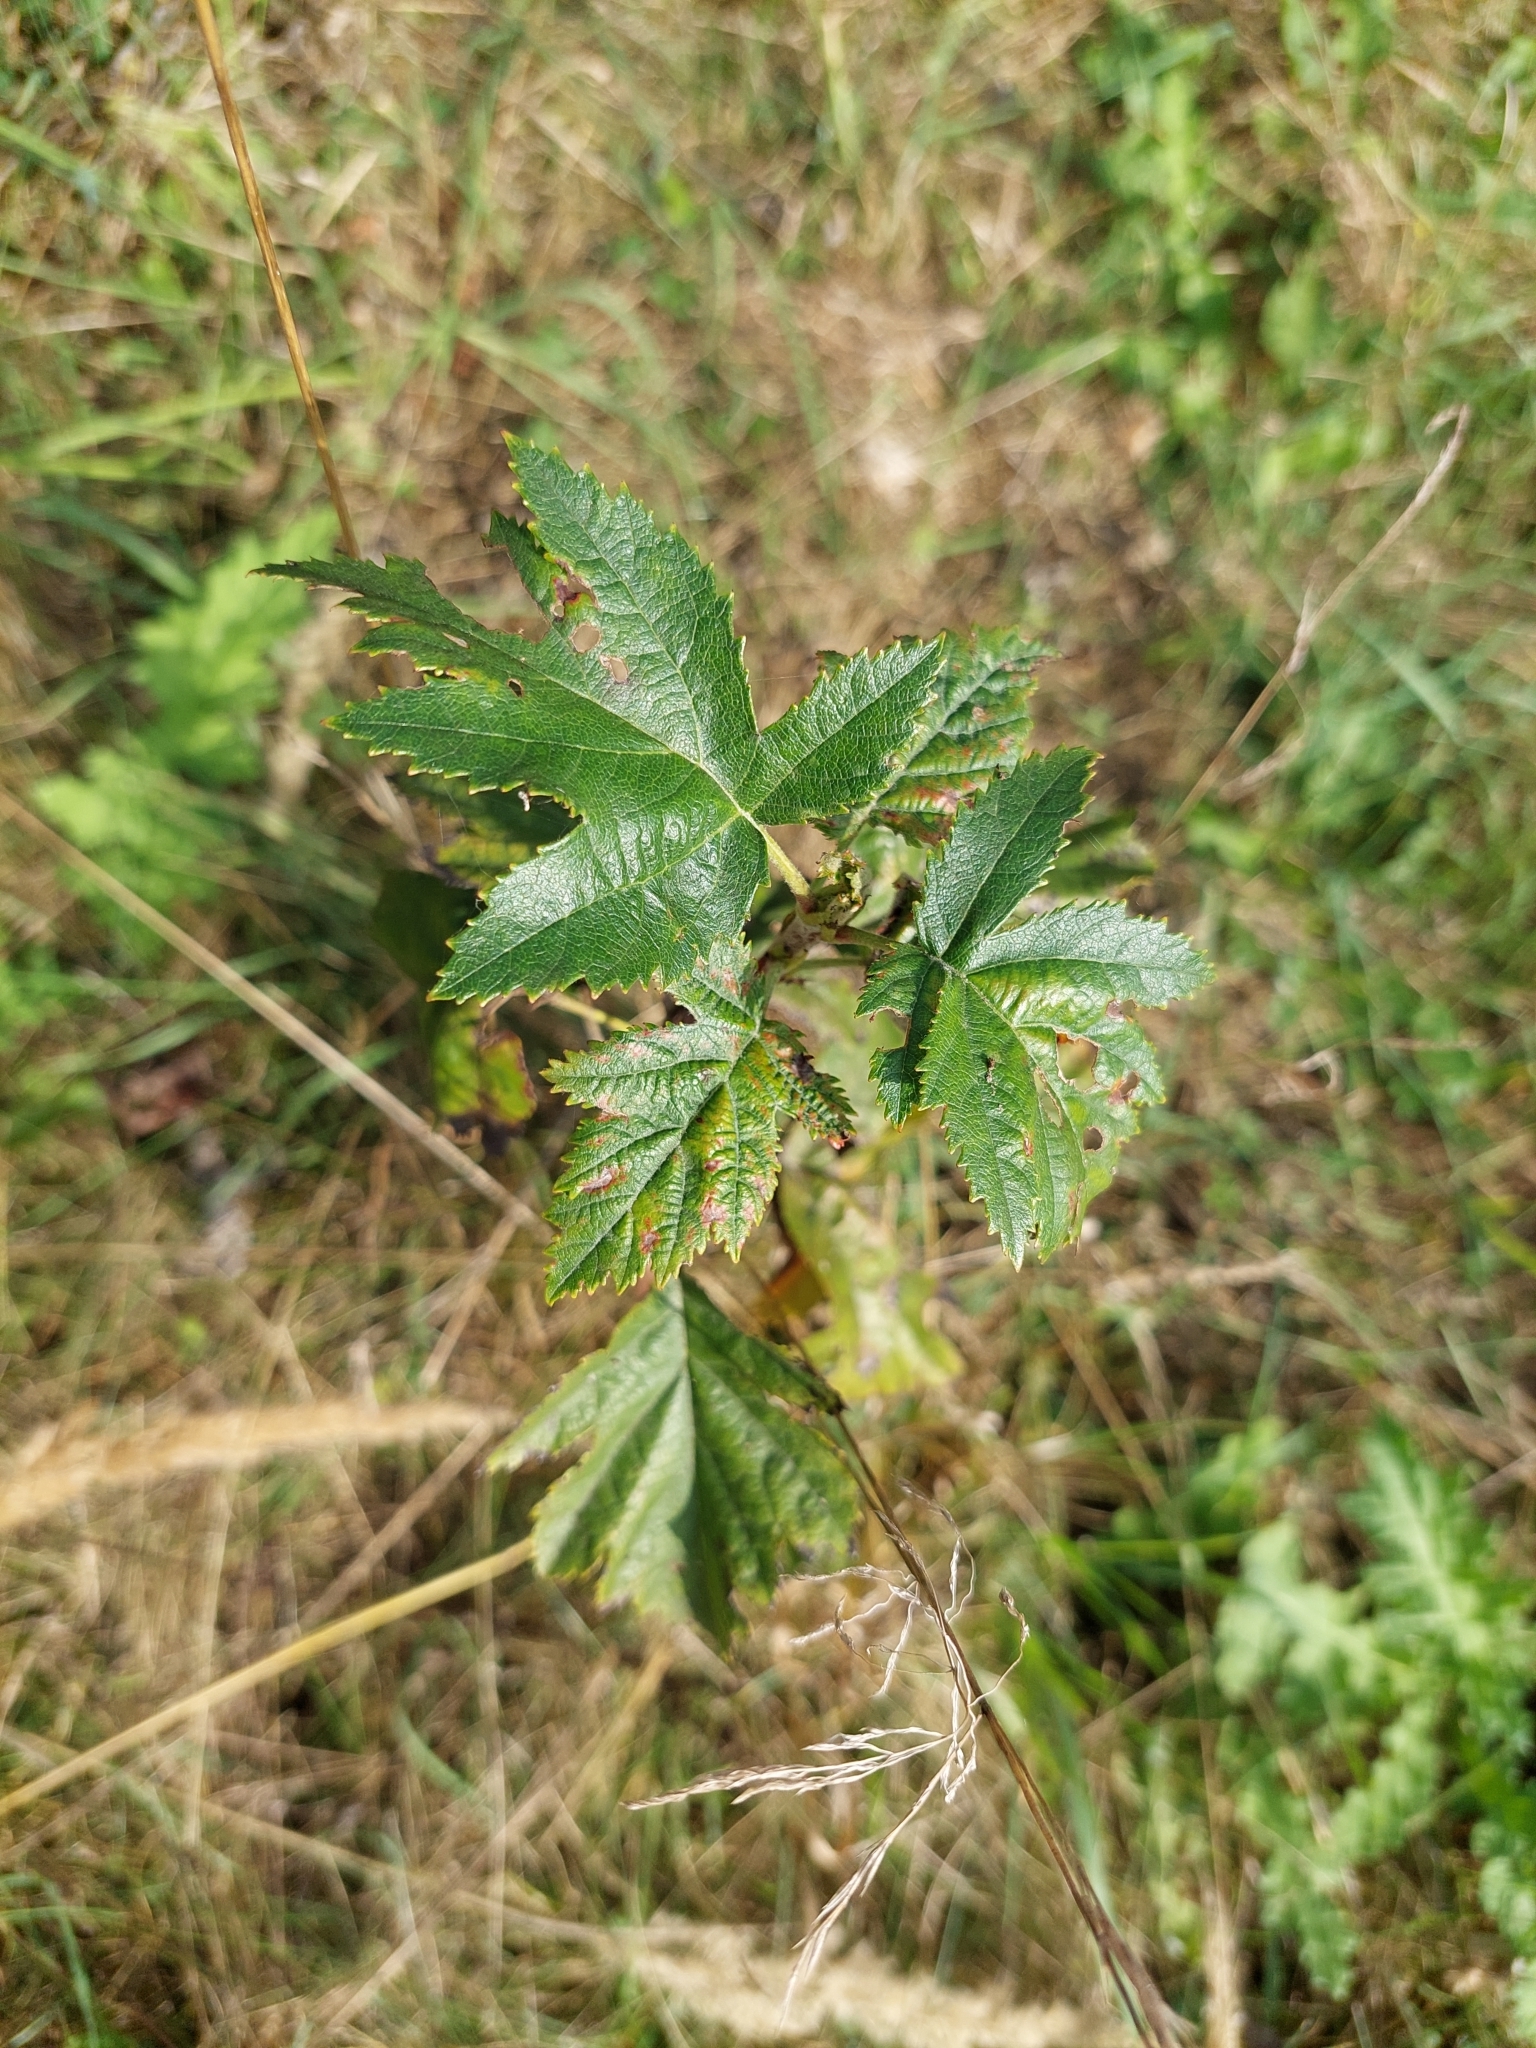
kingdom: Plantae
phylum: Tracheophyta
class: Magnoliopsida
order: Rosales
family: Rosaceae
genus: Torminalis
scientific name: Torminalis glaberrima
